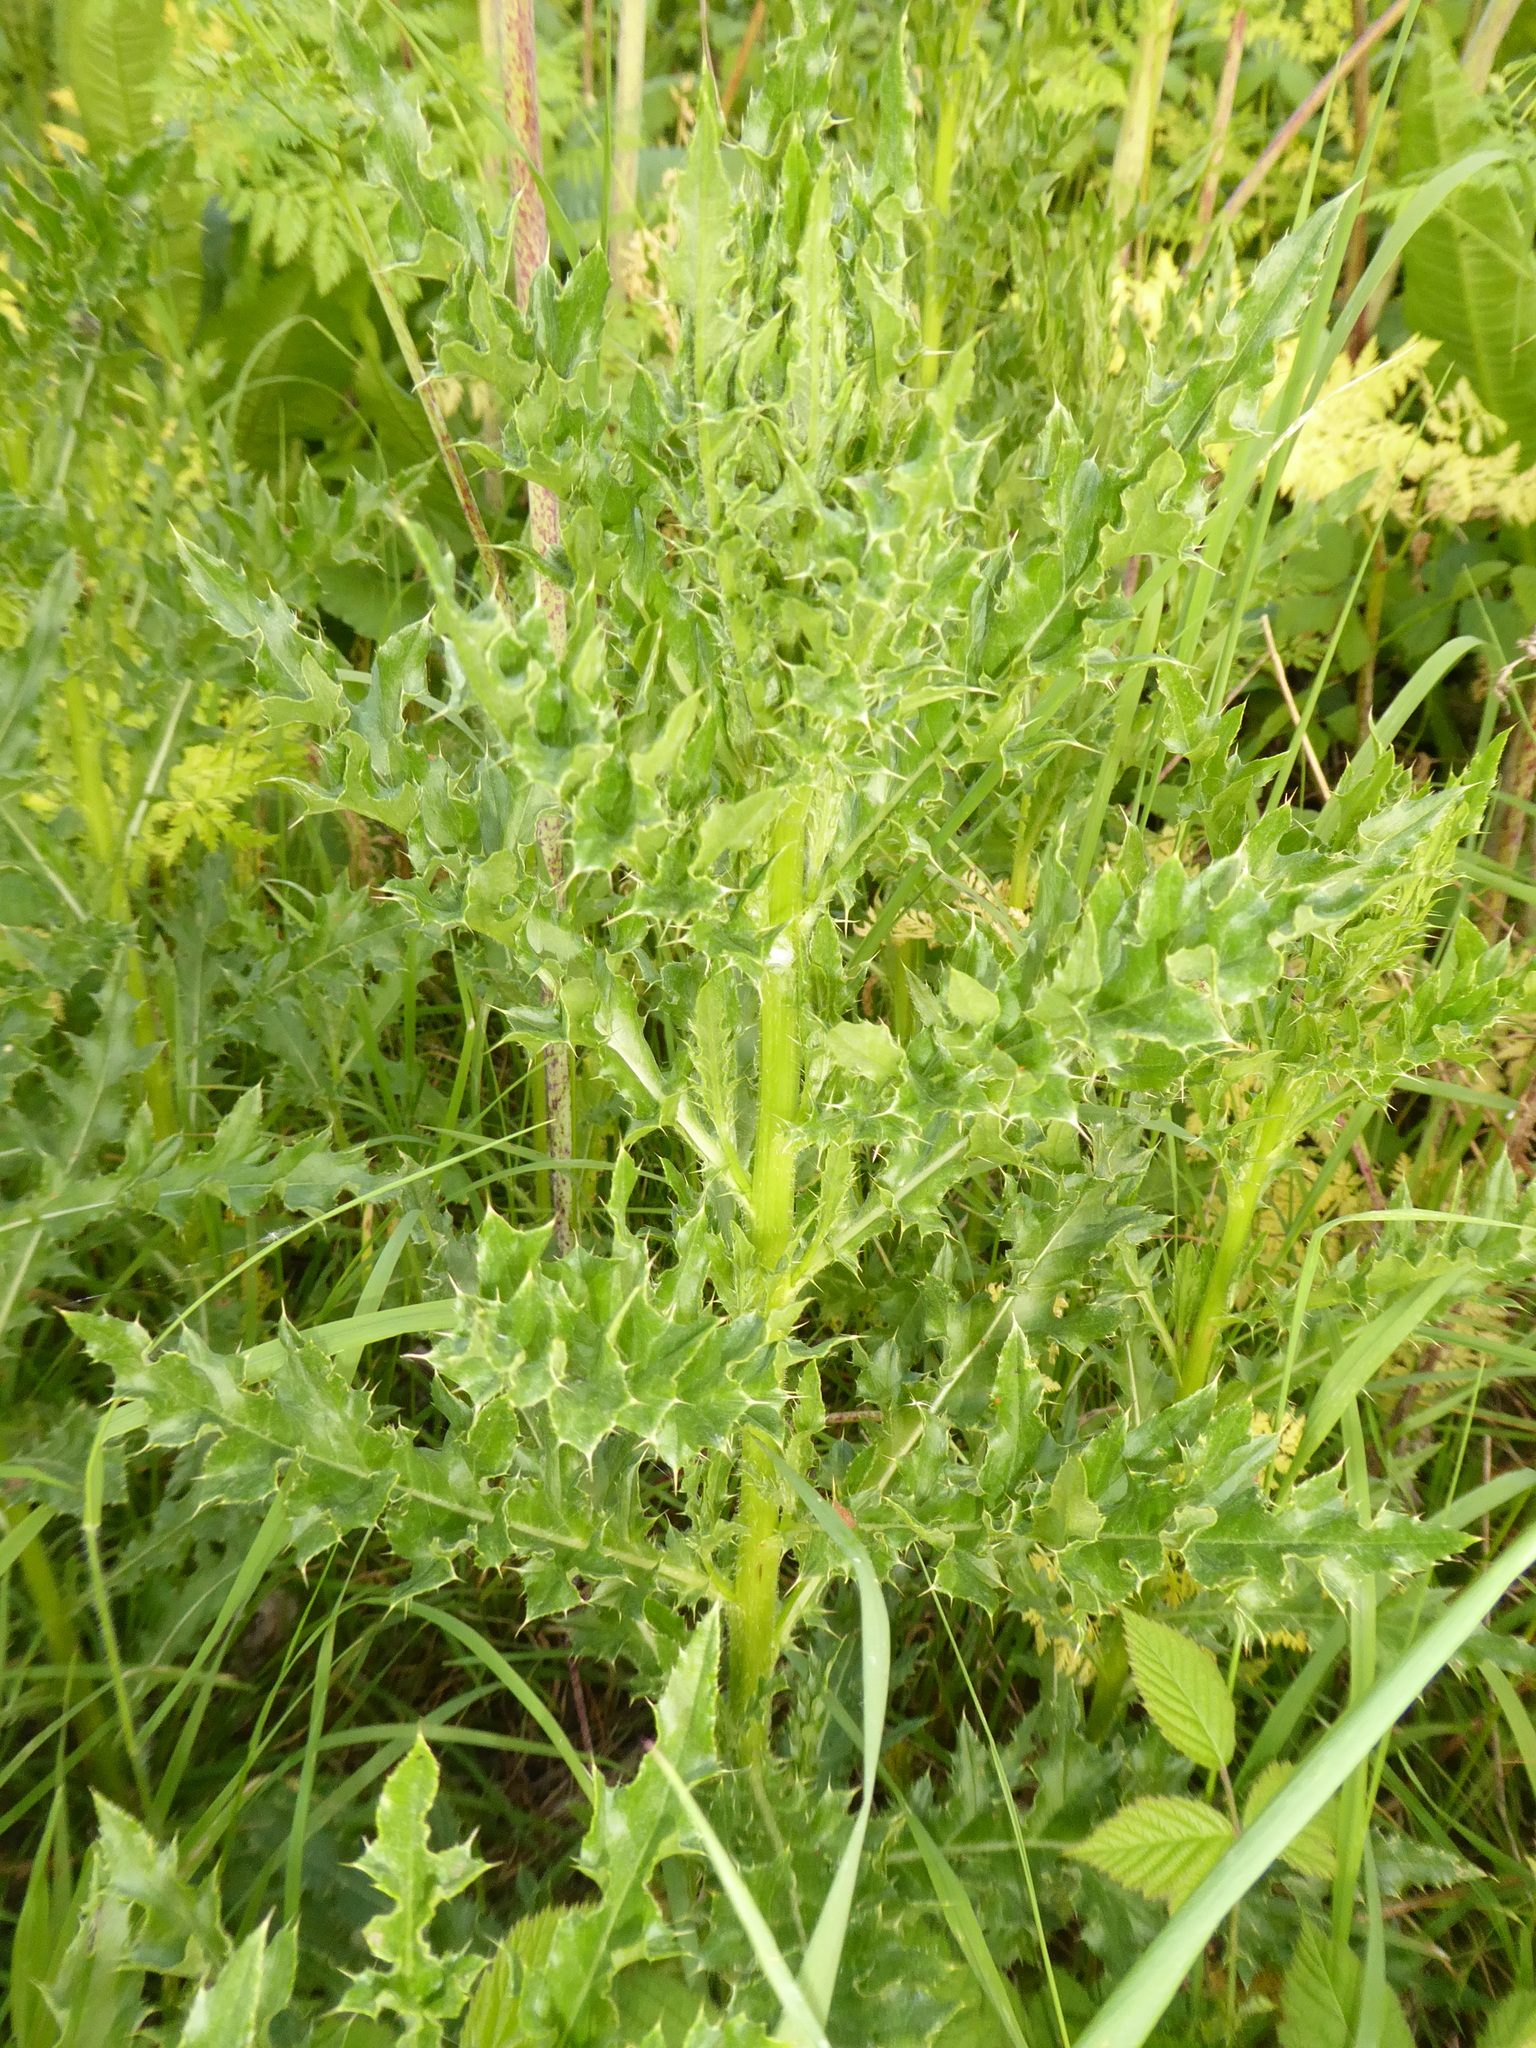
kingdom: Plantae
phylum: Tracheophyta
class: Magnoliopsida
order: Asterales
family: Asteraceae
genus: Cirsium
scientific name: Cirsium arvense
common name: Creeping thistle
